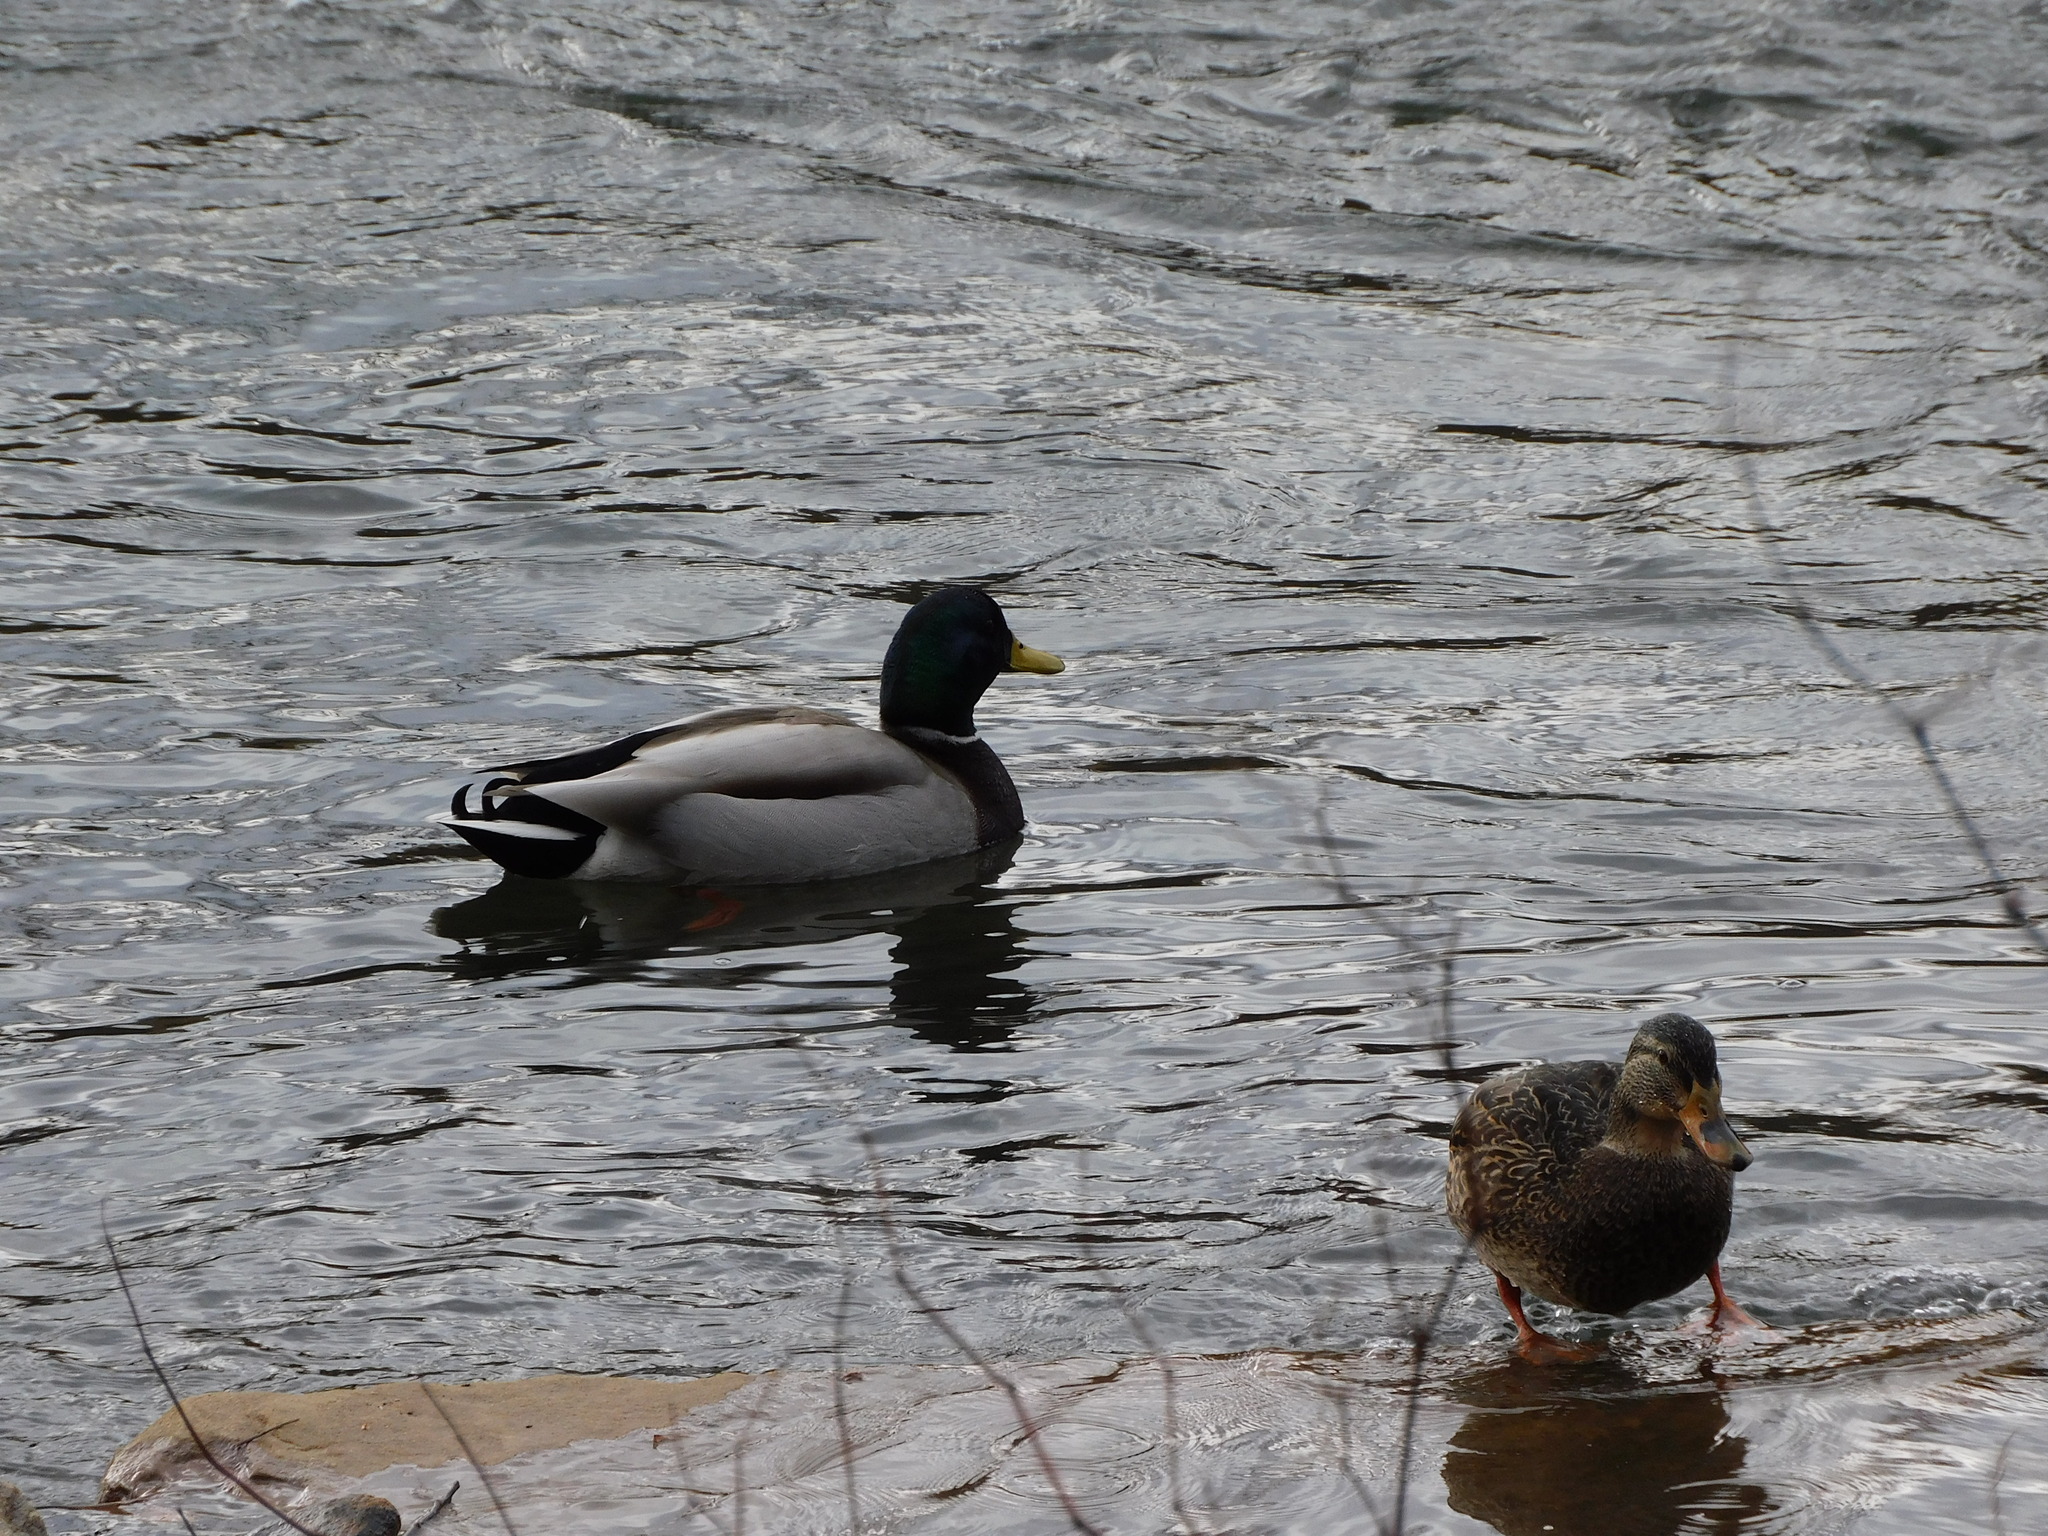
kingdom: Animalia
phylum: Chordata
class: Aves
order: Anseriformes
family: Anatidae
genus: Anas
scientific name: Anas platyrhynchos
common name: Mallard
